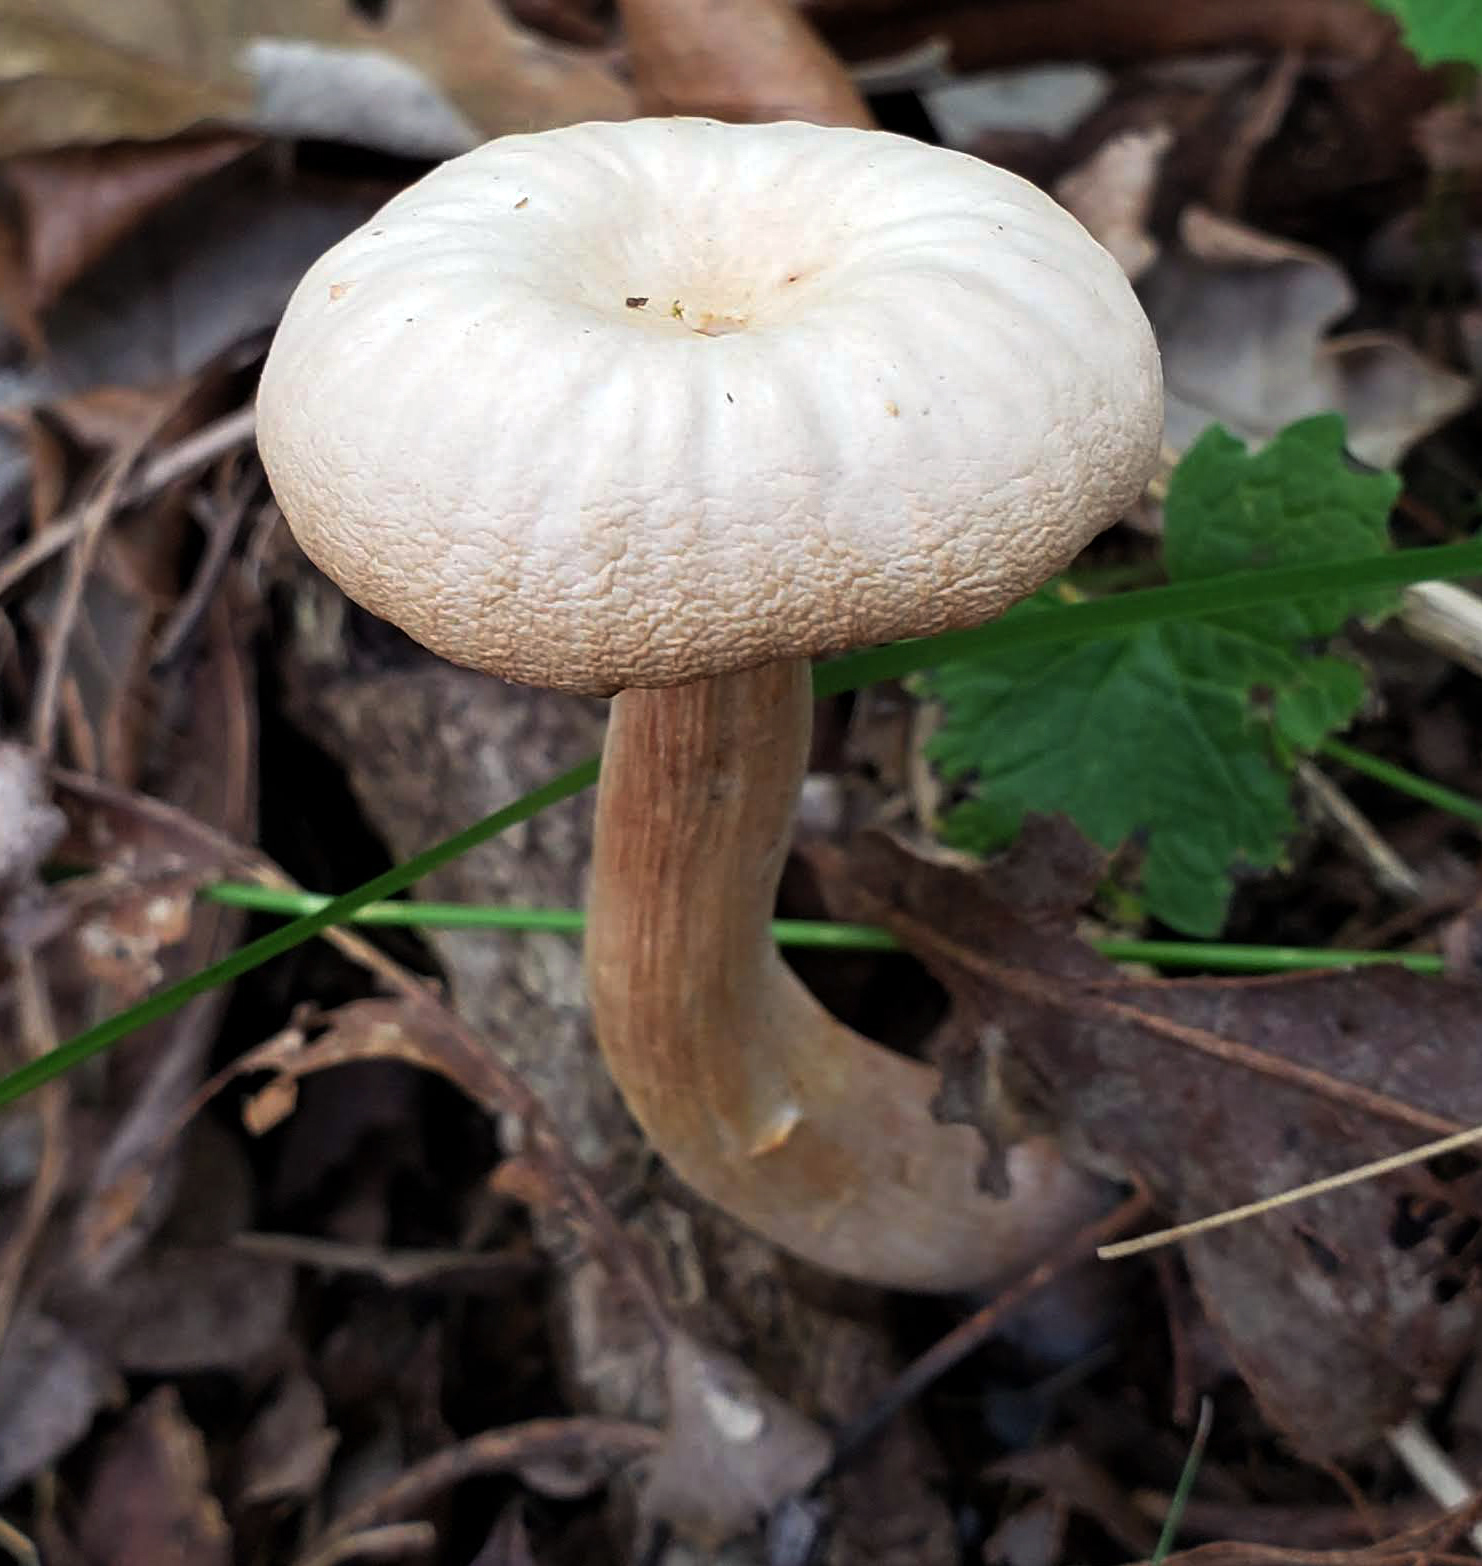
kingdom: Fungi
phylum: Basidiomycota
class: Agaricomycetes
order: Agaricales
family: Hydnangiaceae
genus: Laccaria
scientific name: Laccaria ochropurpurea
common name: Purple laccaria
